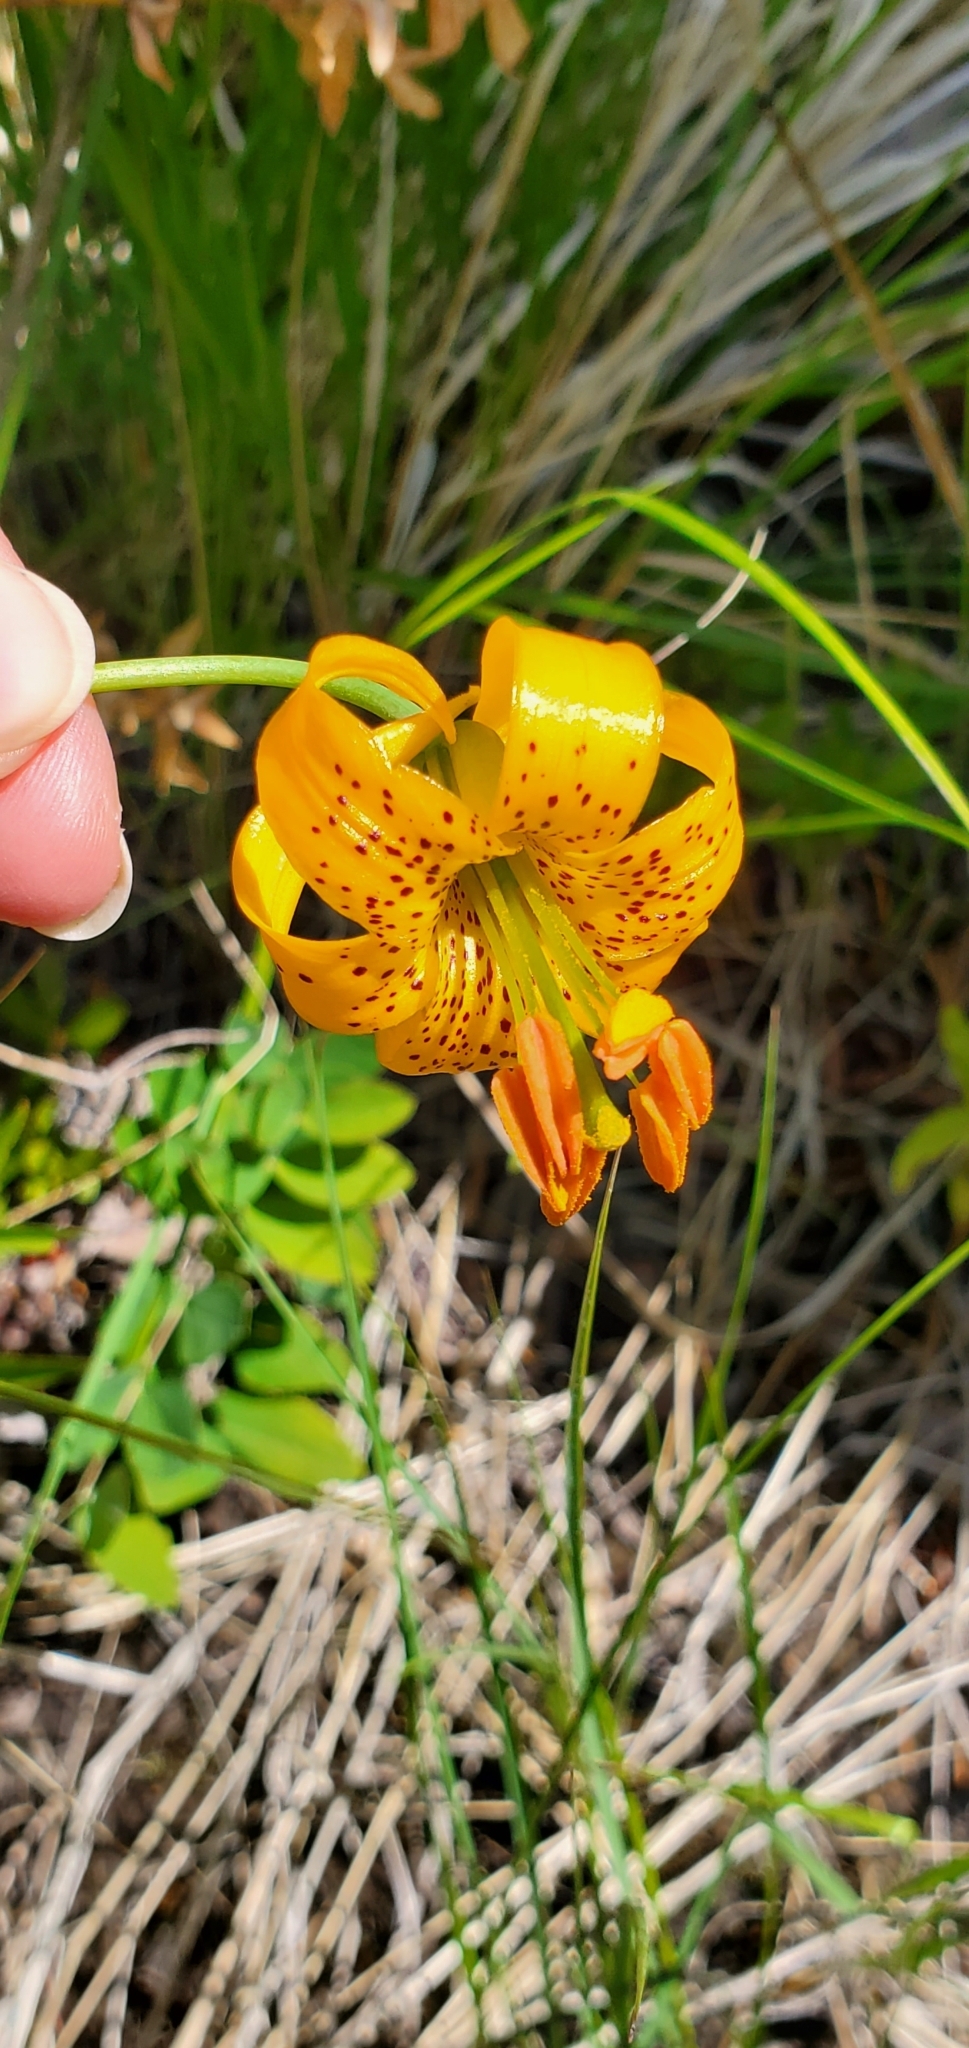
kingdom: Plantae
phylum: Tracheophyta
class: Liliopsida
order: Liliales
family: Liliaceae
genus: Lilium
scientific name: Lilium columbianum
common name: Columbia lily
